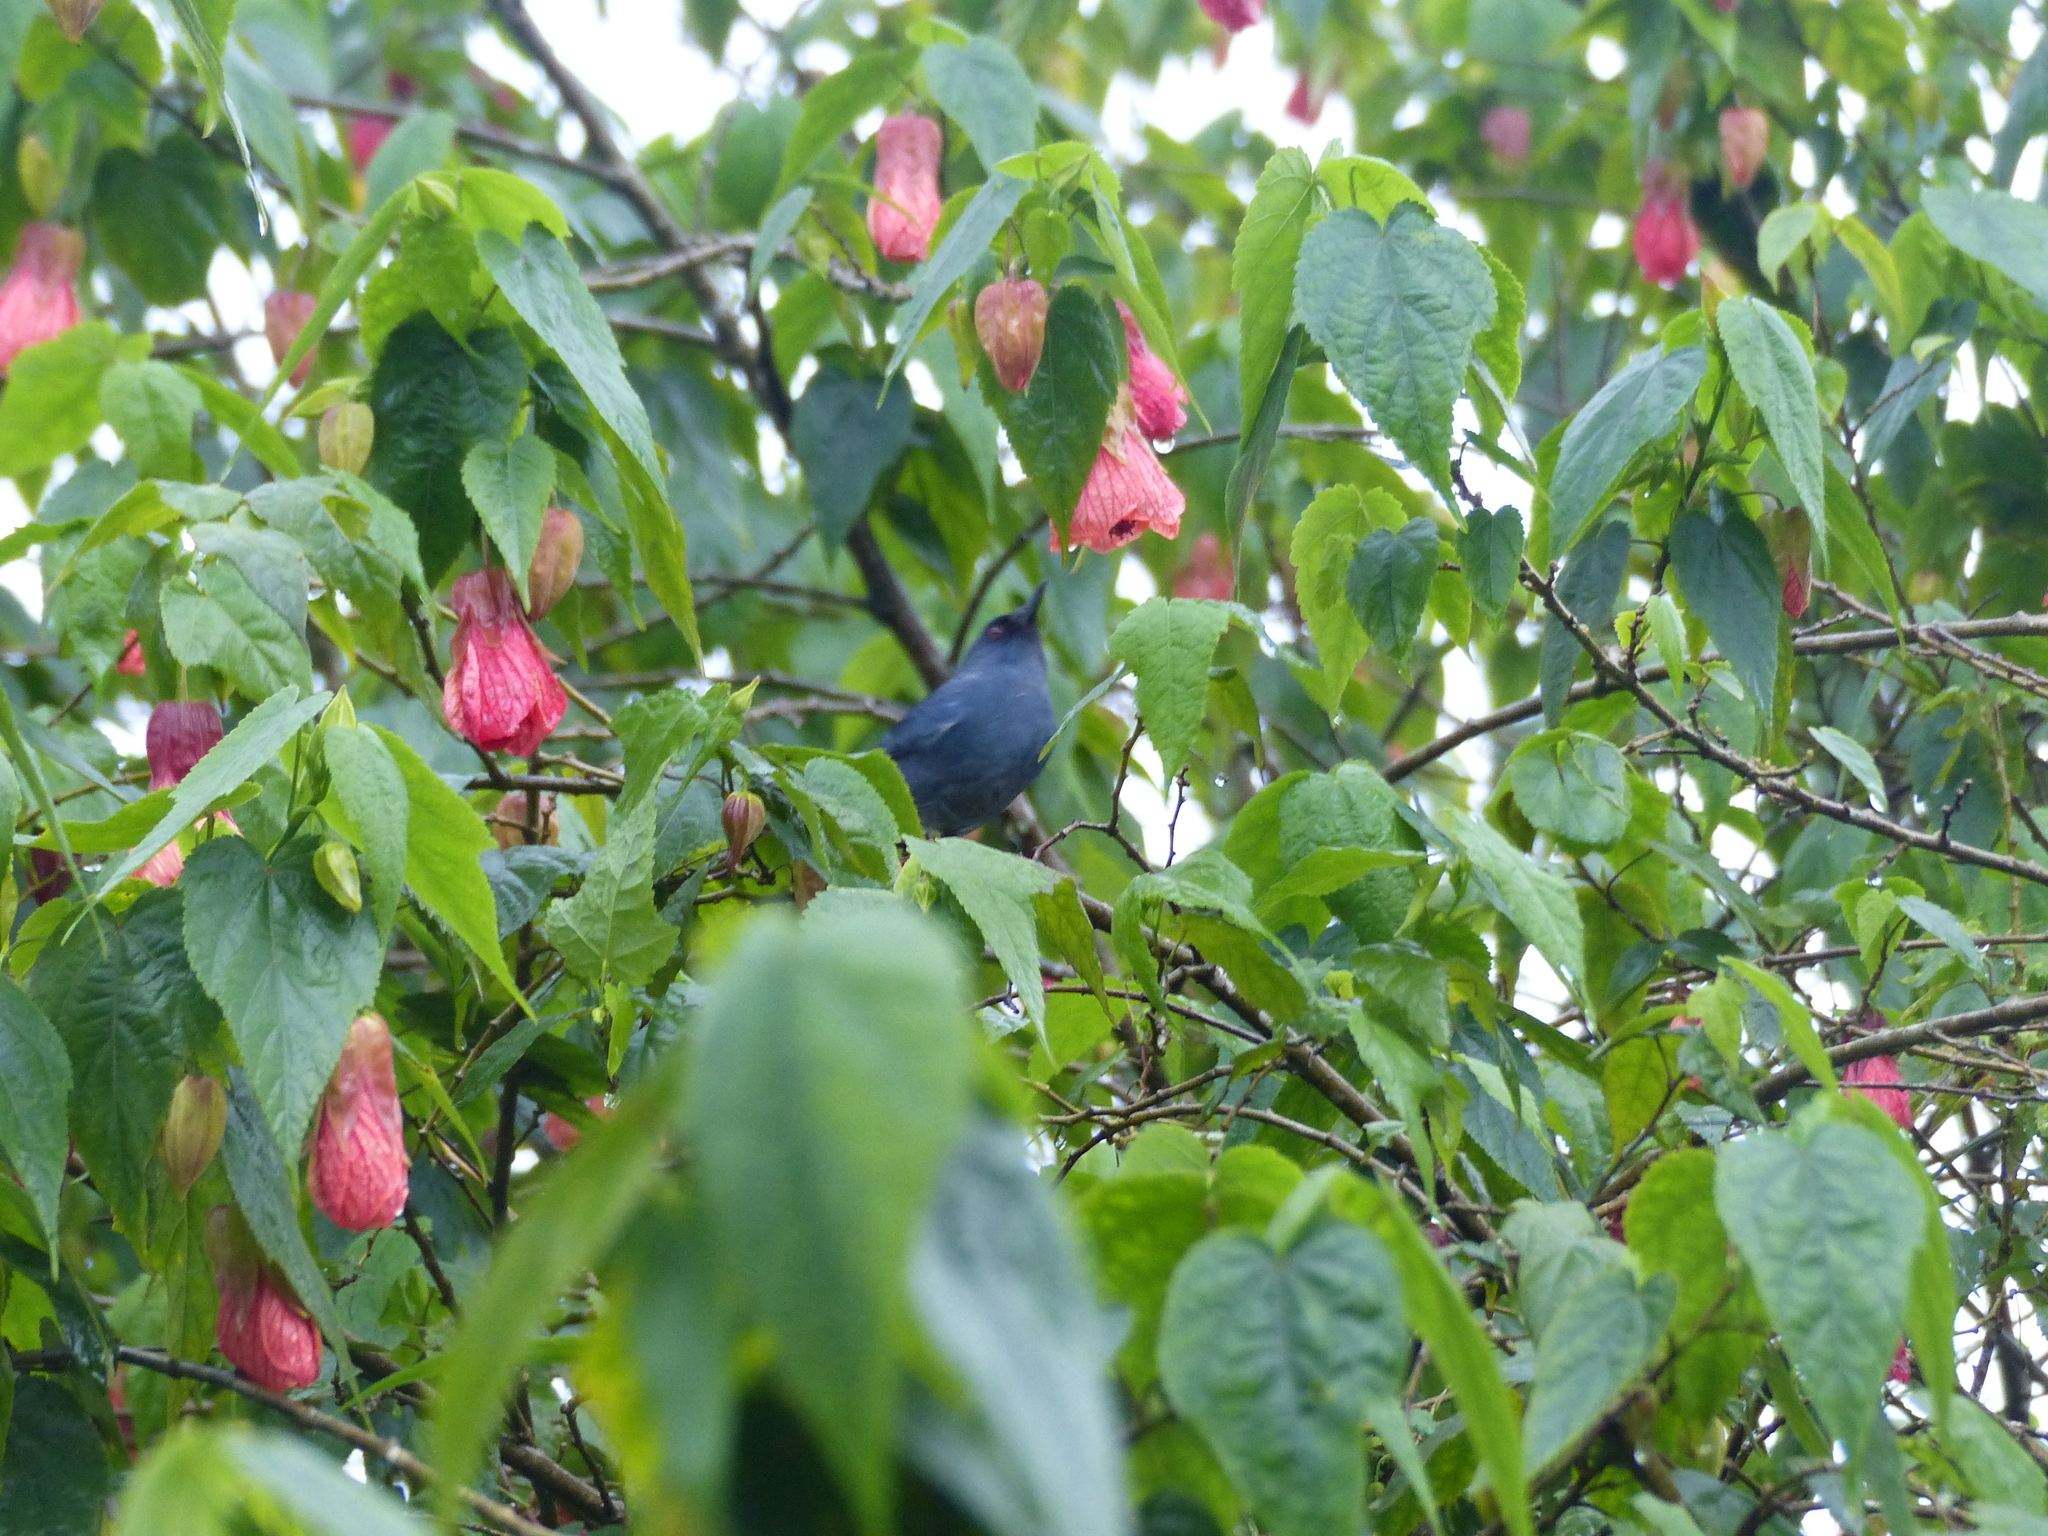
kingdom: Animalia
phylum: Chordata
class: Aves
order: Passeriformes
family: Thraupidae
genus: Diglossa
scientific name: Diglossa caerulescens
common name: Bluish flowerpiercer
